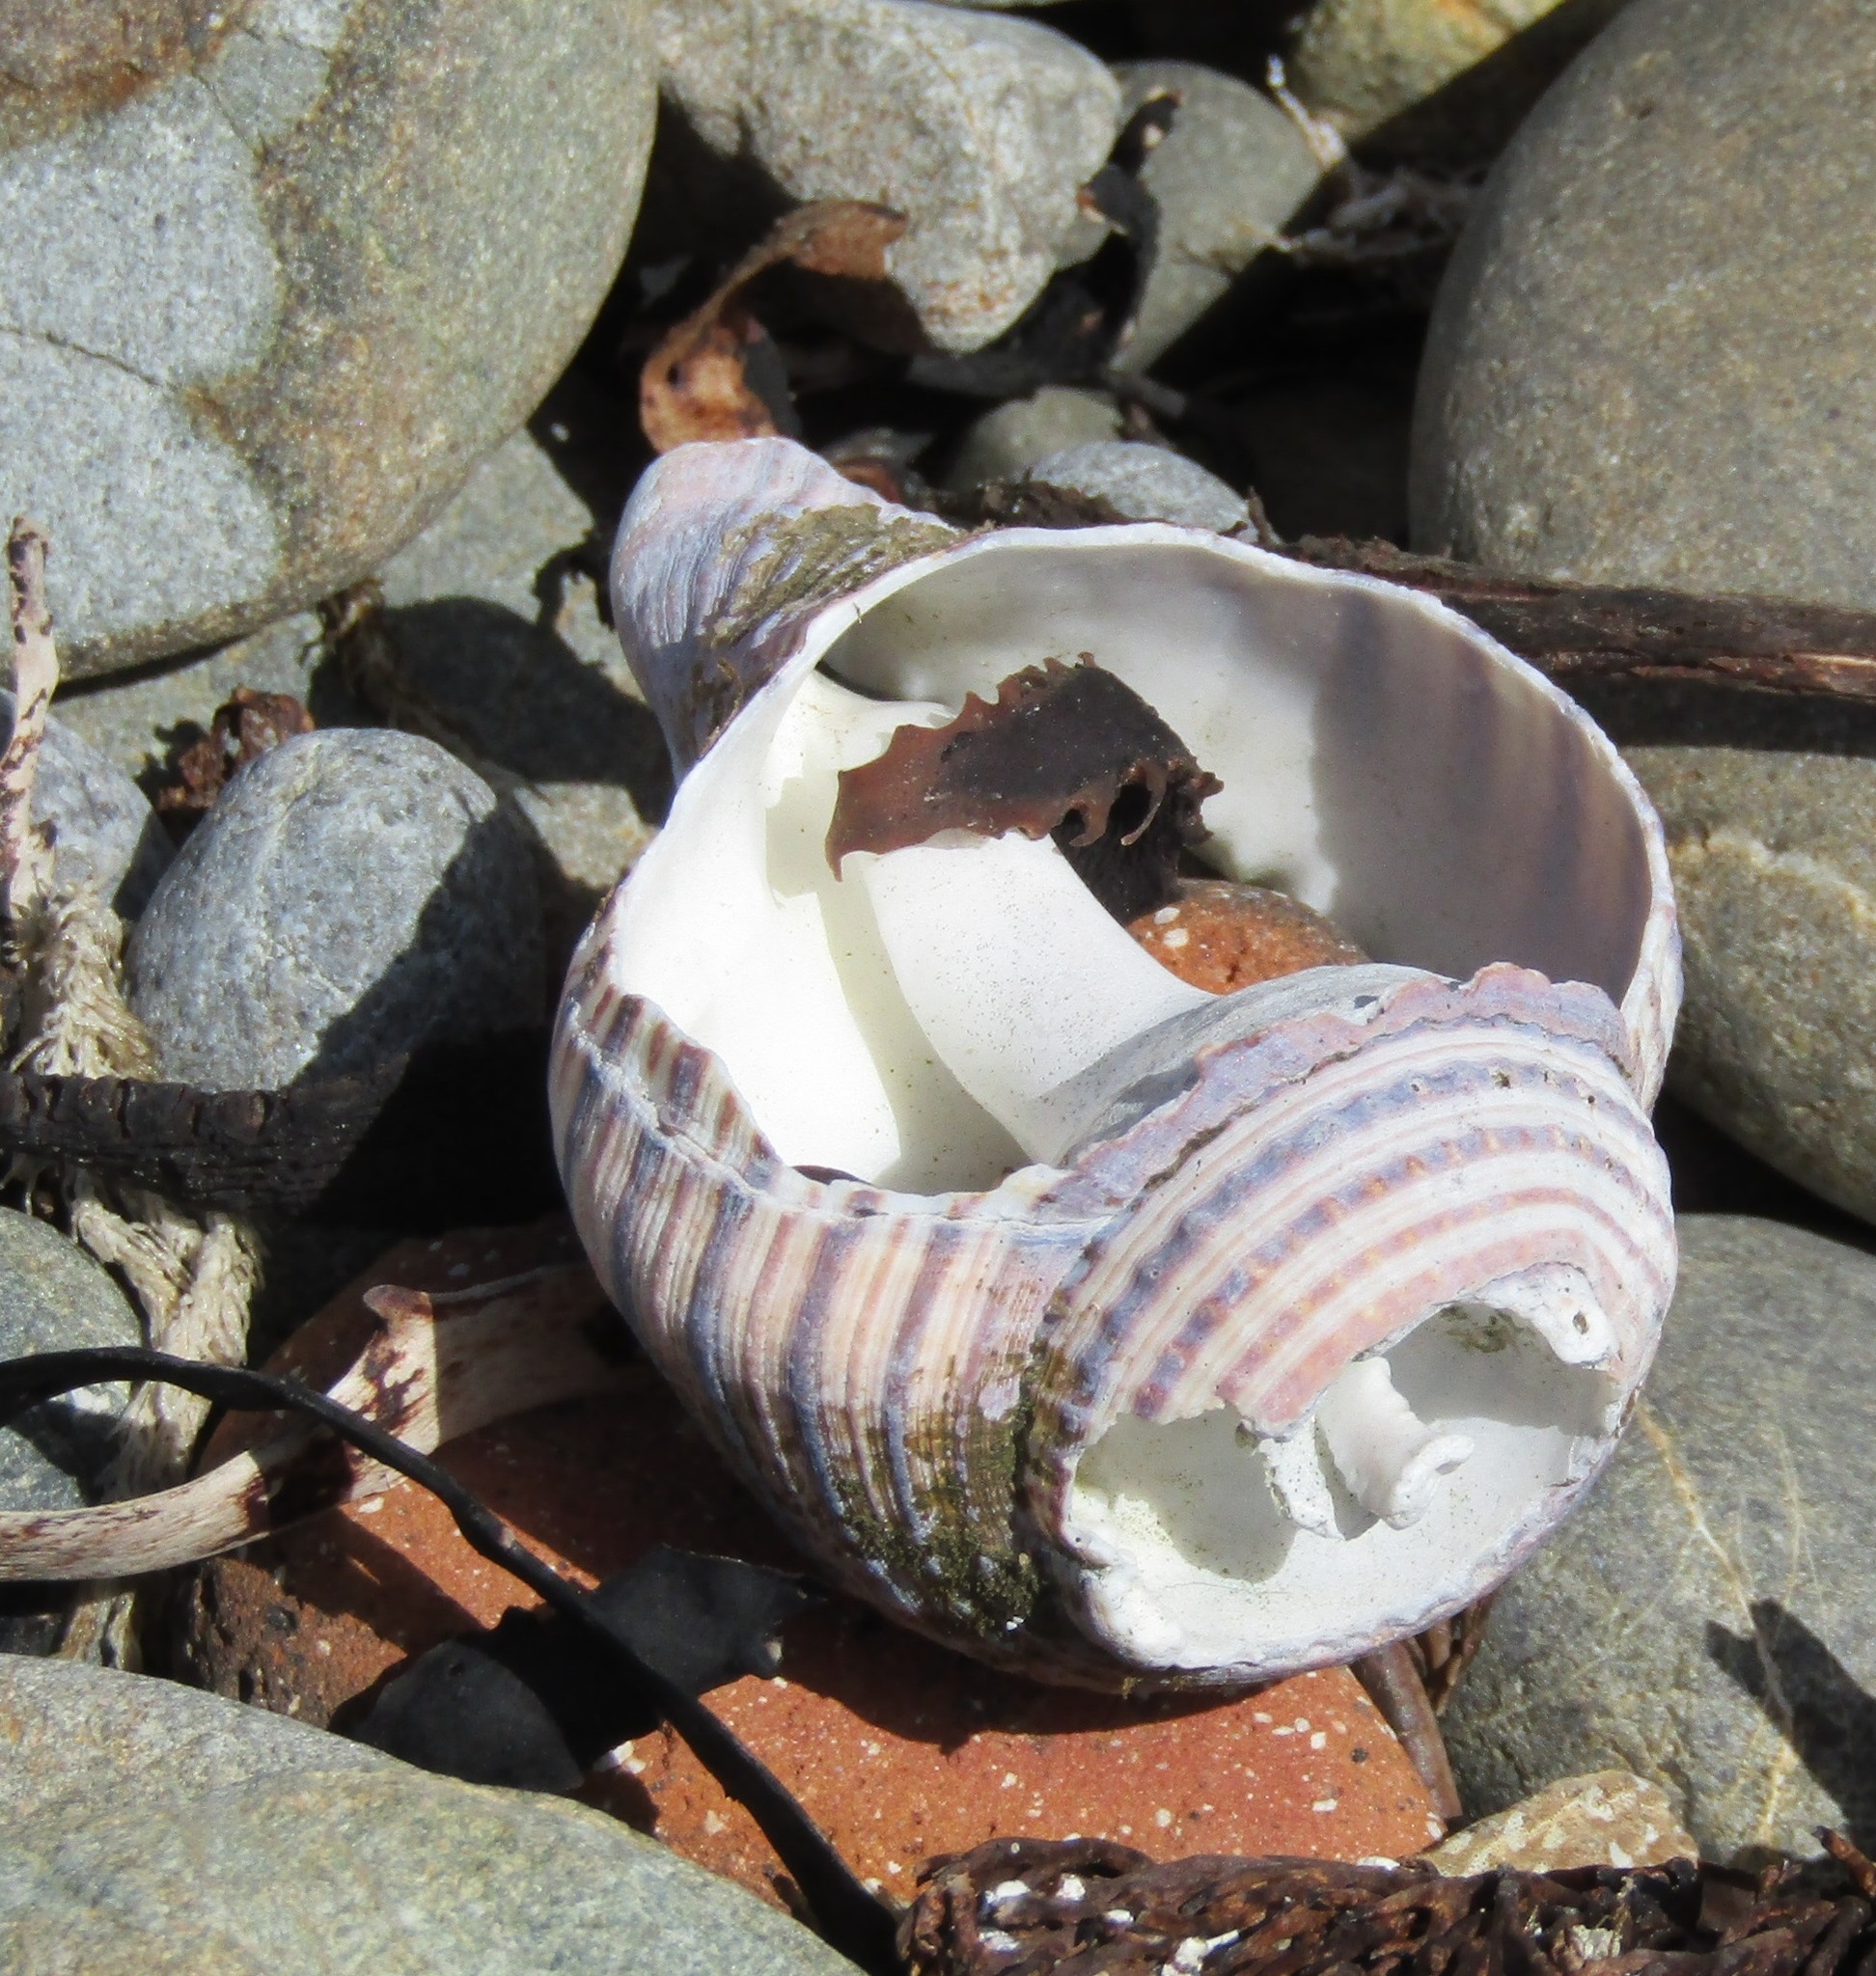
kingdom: Animalia
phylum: Mollusca
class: Gastropoda
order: Littorinimorpha
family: Cymatiidae
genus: Argobuccinum
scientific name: Argobuccinum pustulosum
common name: Pustular triton
